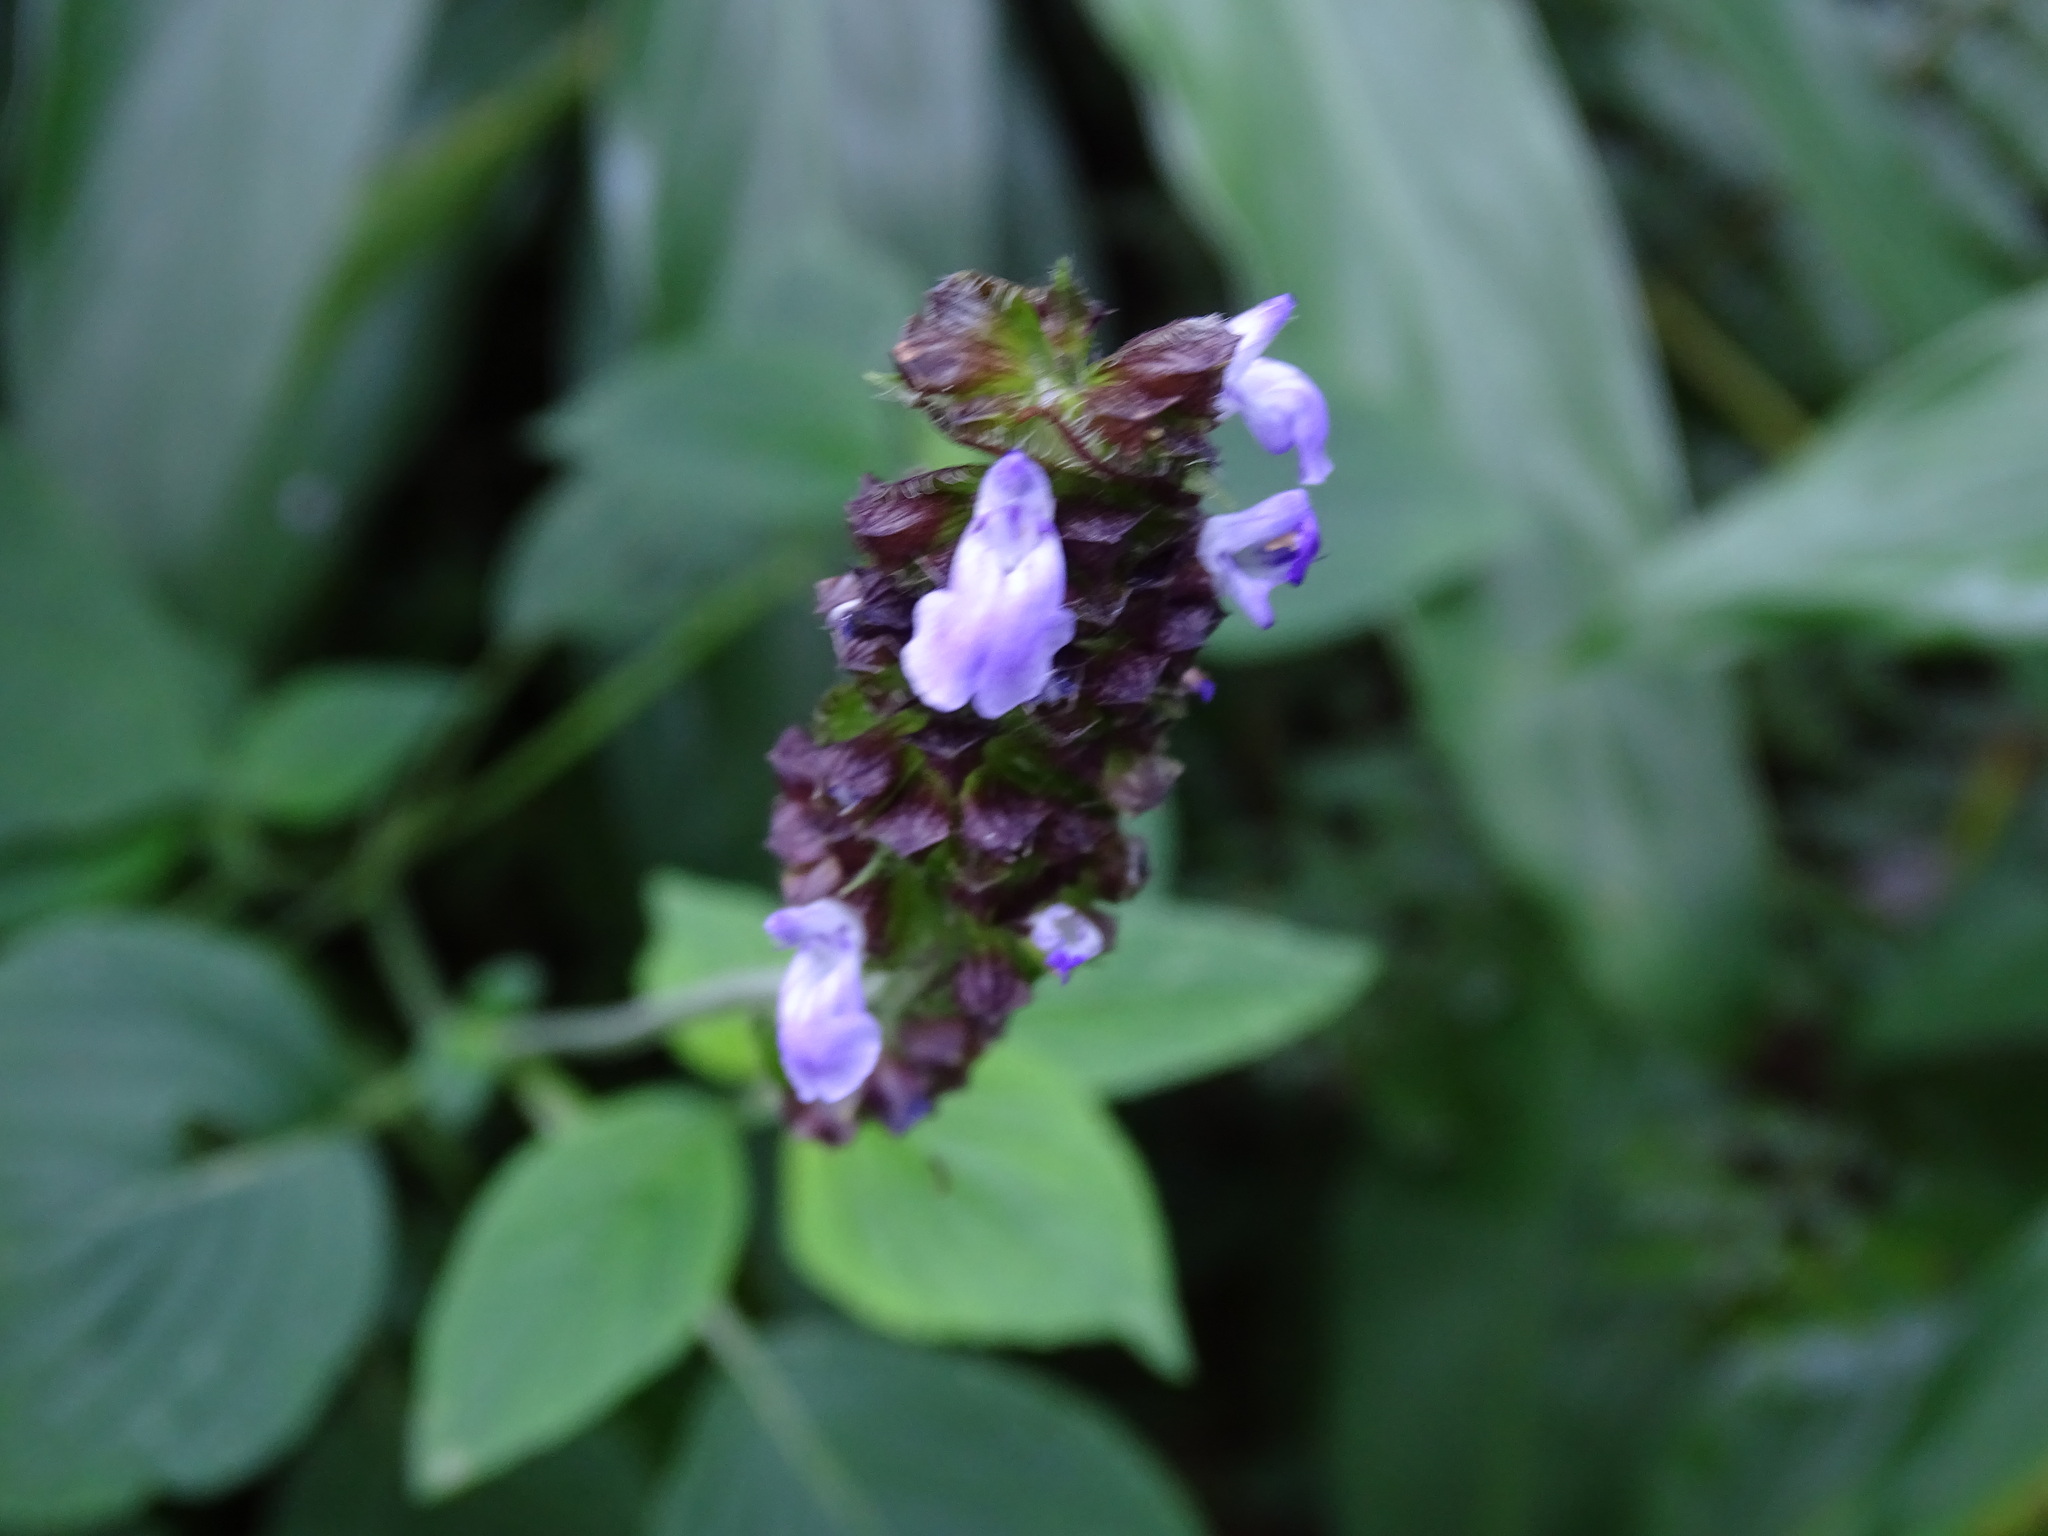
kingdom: Plantae
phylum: Tracheophyta
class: Magnoliopsida
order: Lamiales
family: Lamiaceae
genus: Salvia
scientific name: Salvia mocinoi
